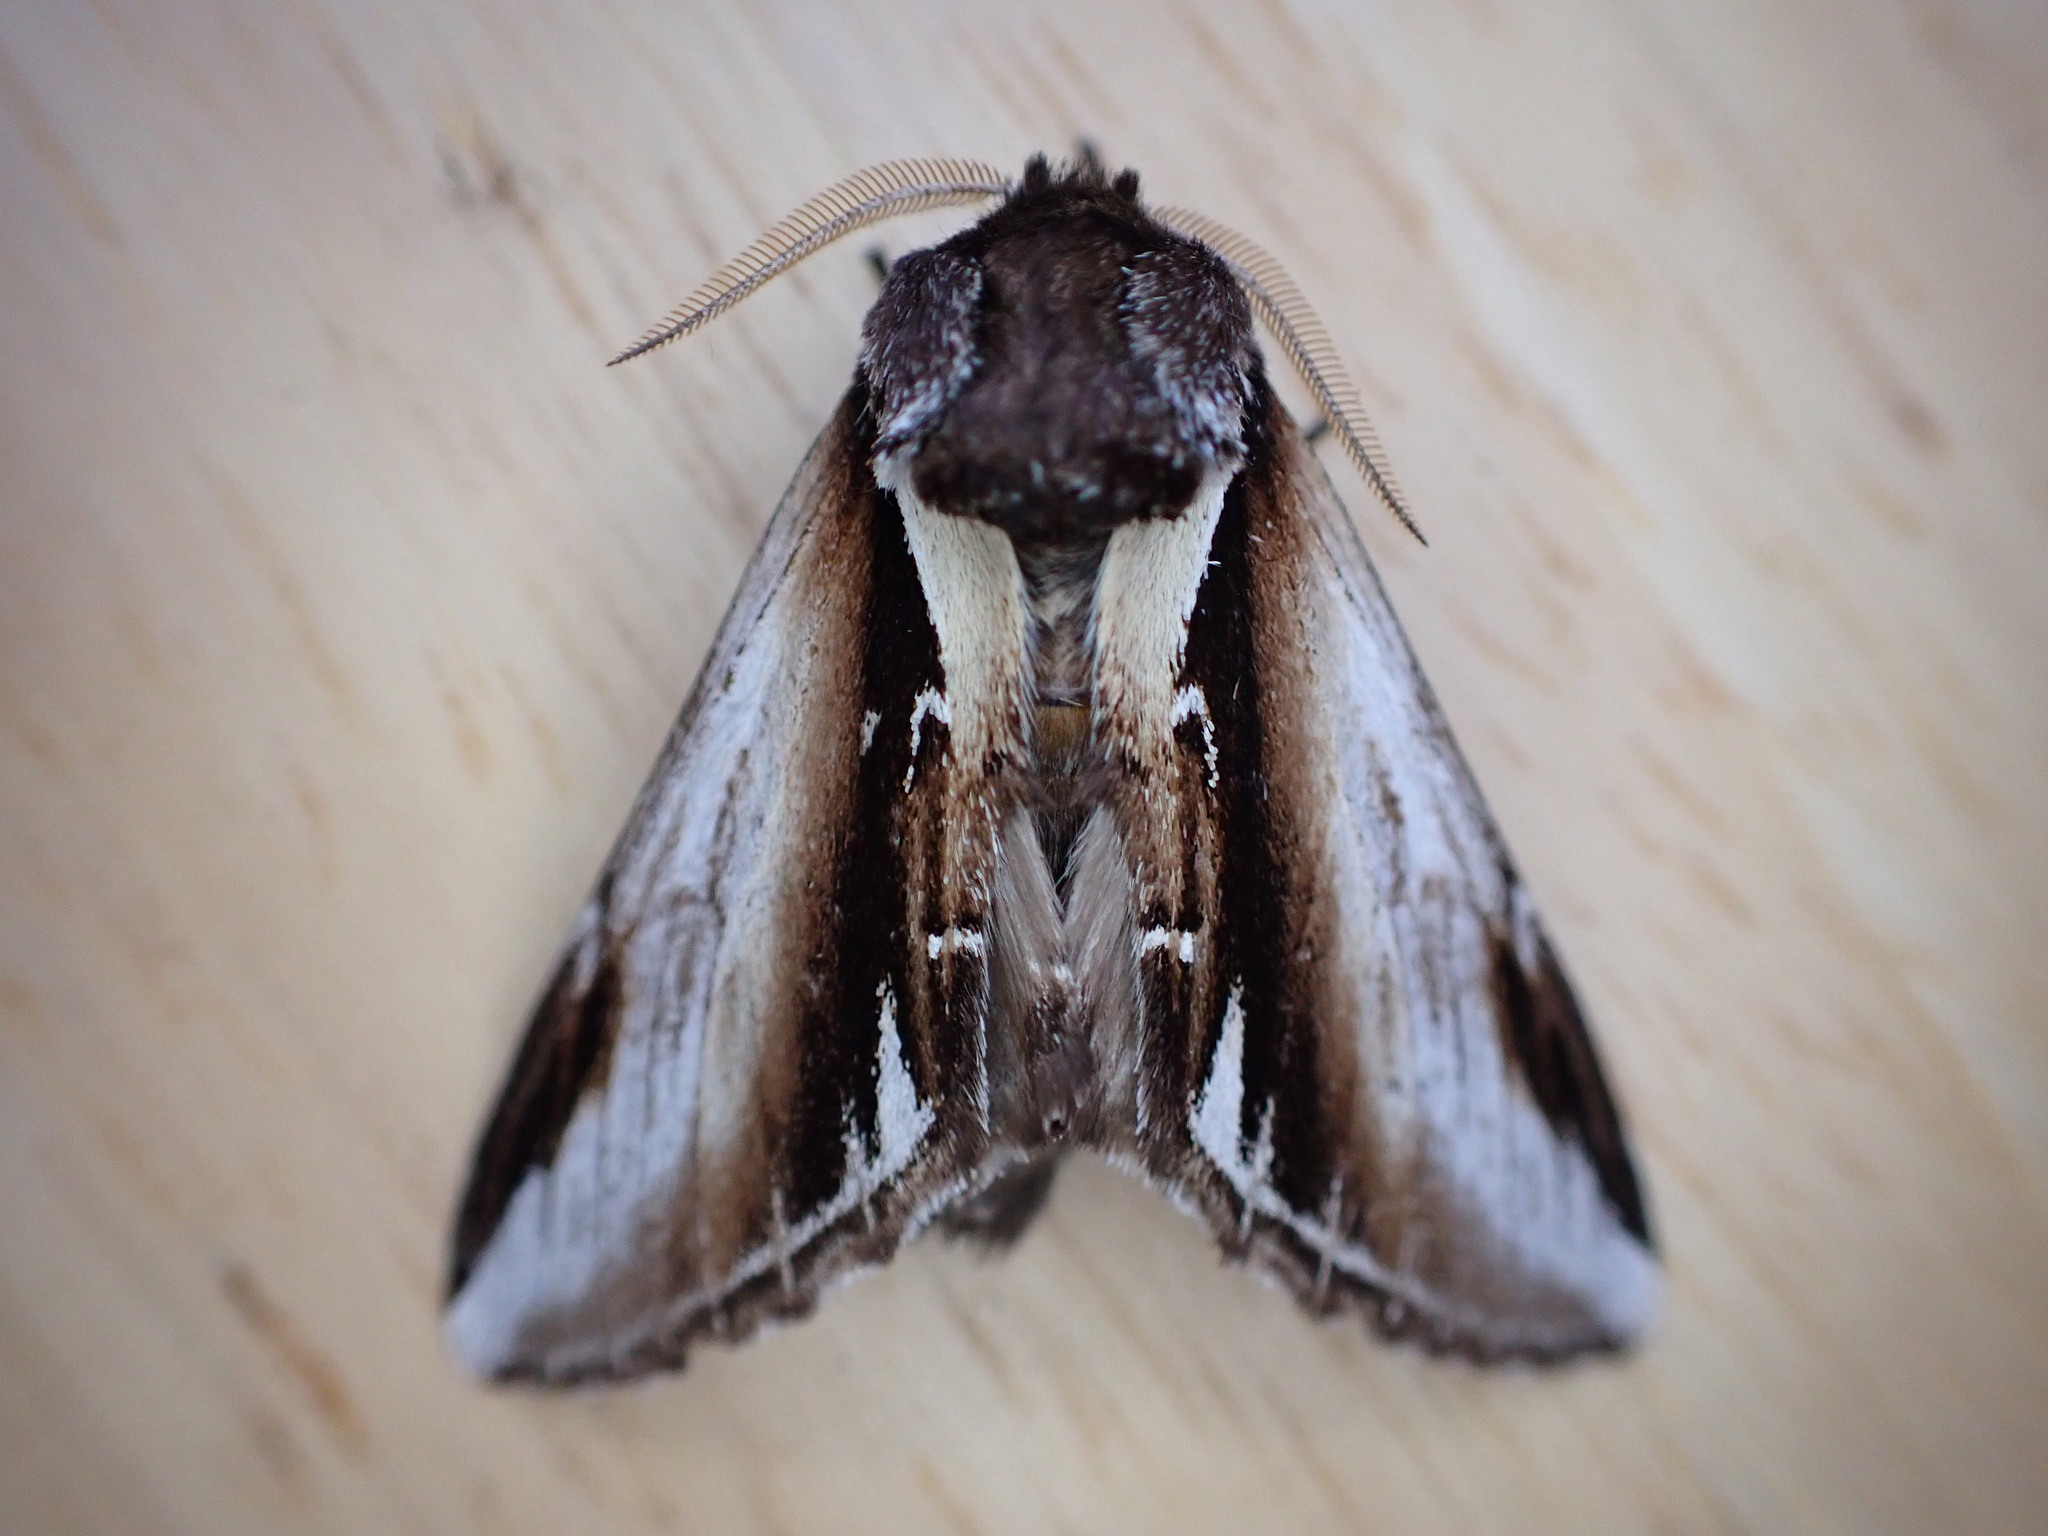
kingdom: Animalia
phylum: Arthropoda
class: Insecta
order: Lepidoptera
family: Notodontidae
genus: Pheosia
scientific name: Pheosia gnoma
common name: Lesser swallow prominent
